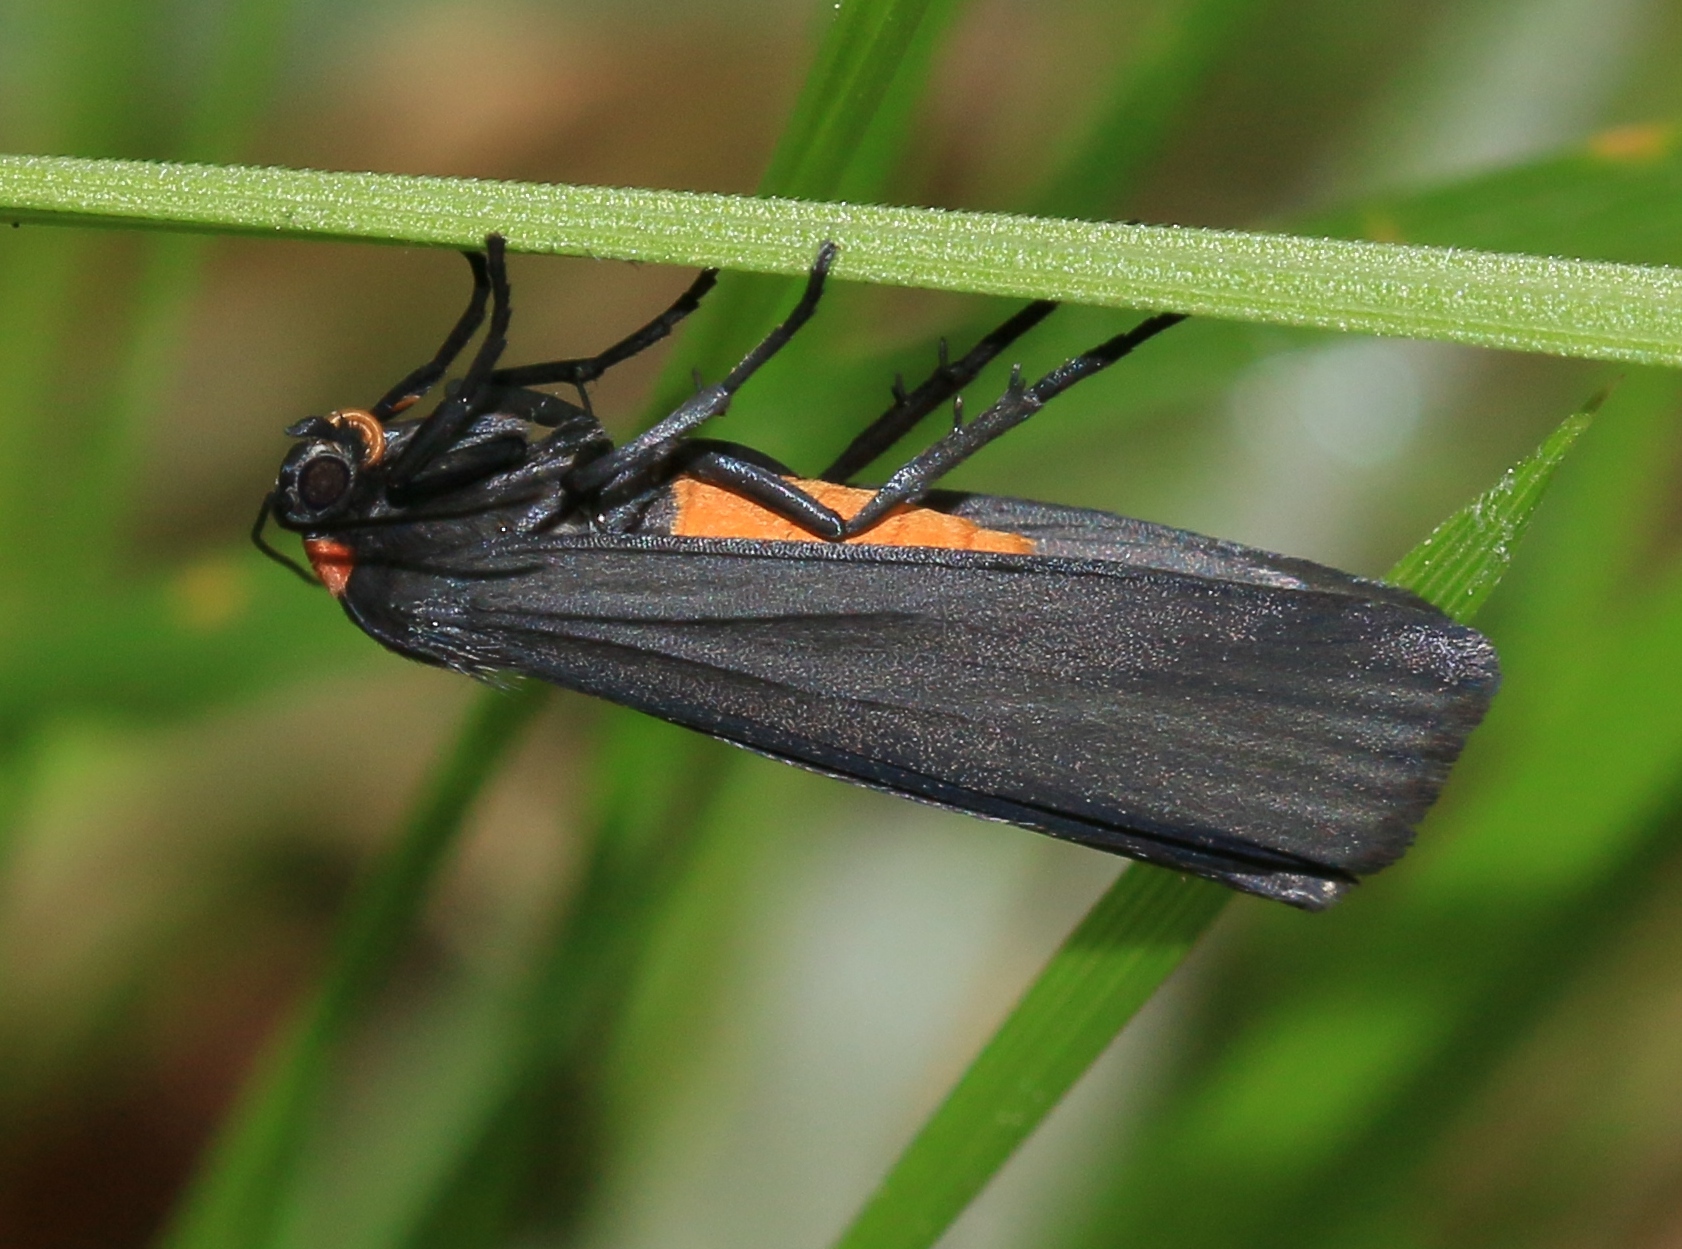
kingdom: Animalia
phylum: Arthropoda
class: Insecta
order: Lepidoptera
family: Erebidae
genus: Atolmis
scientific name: Atolmis rubricollis
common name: Red-necked footman
